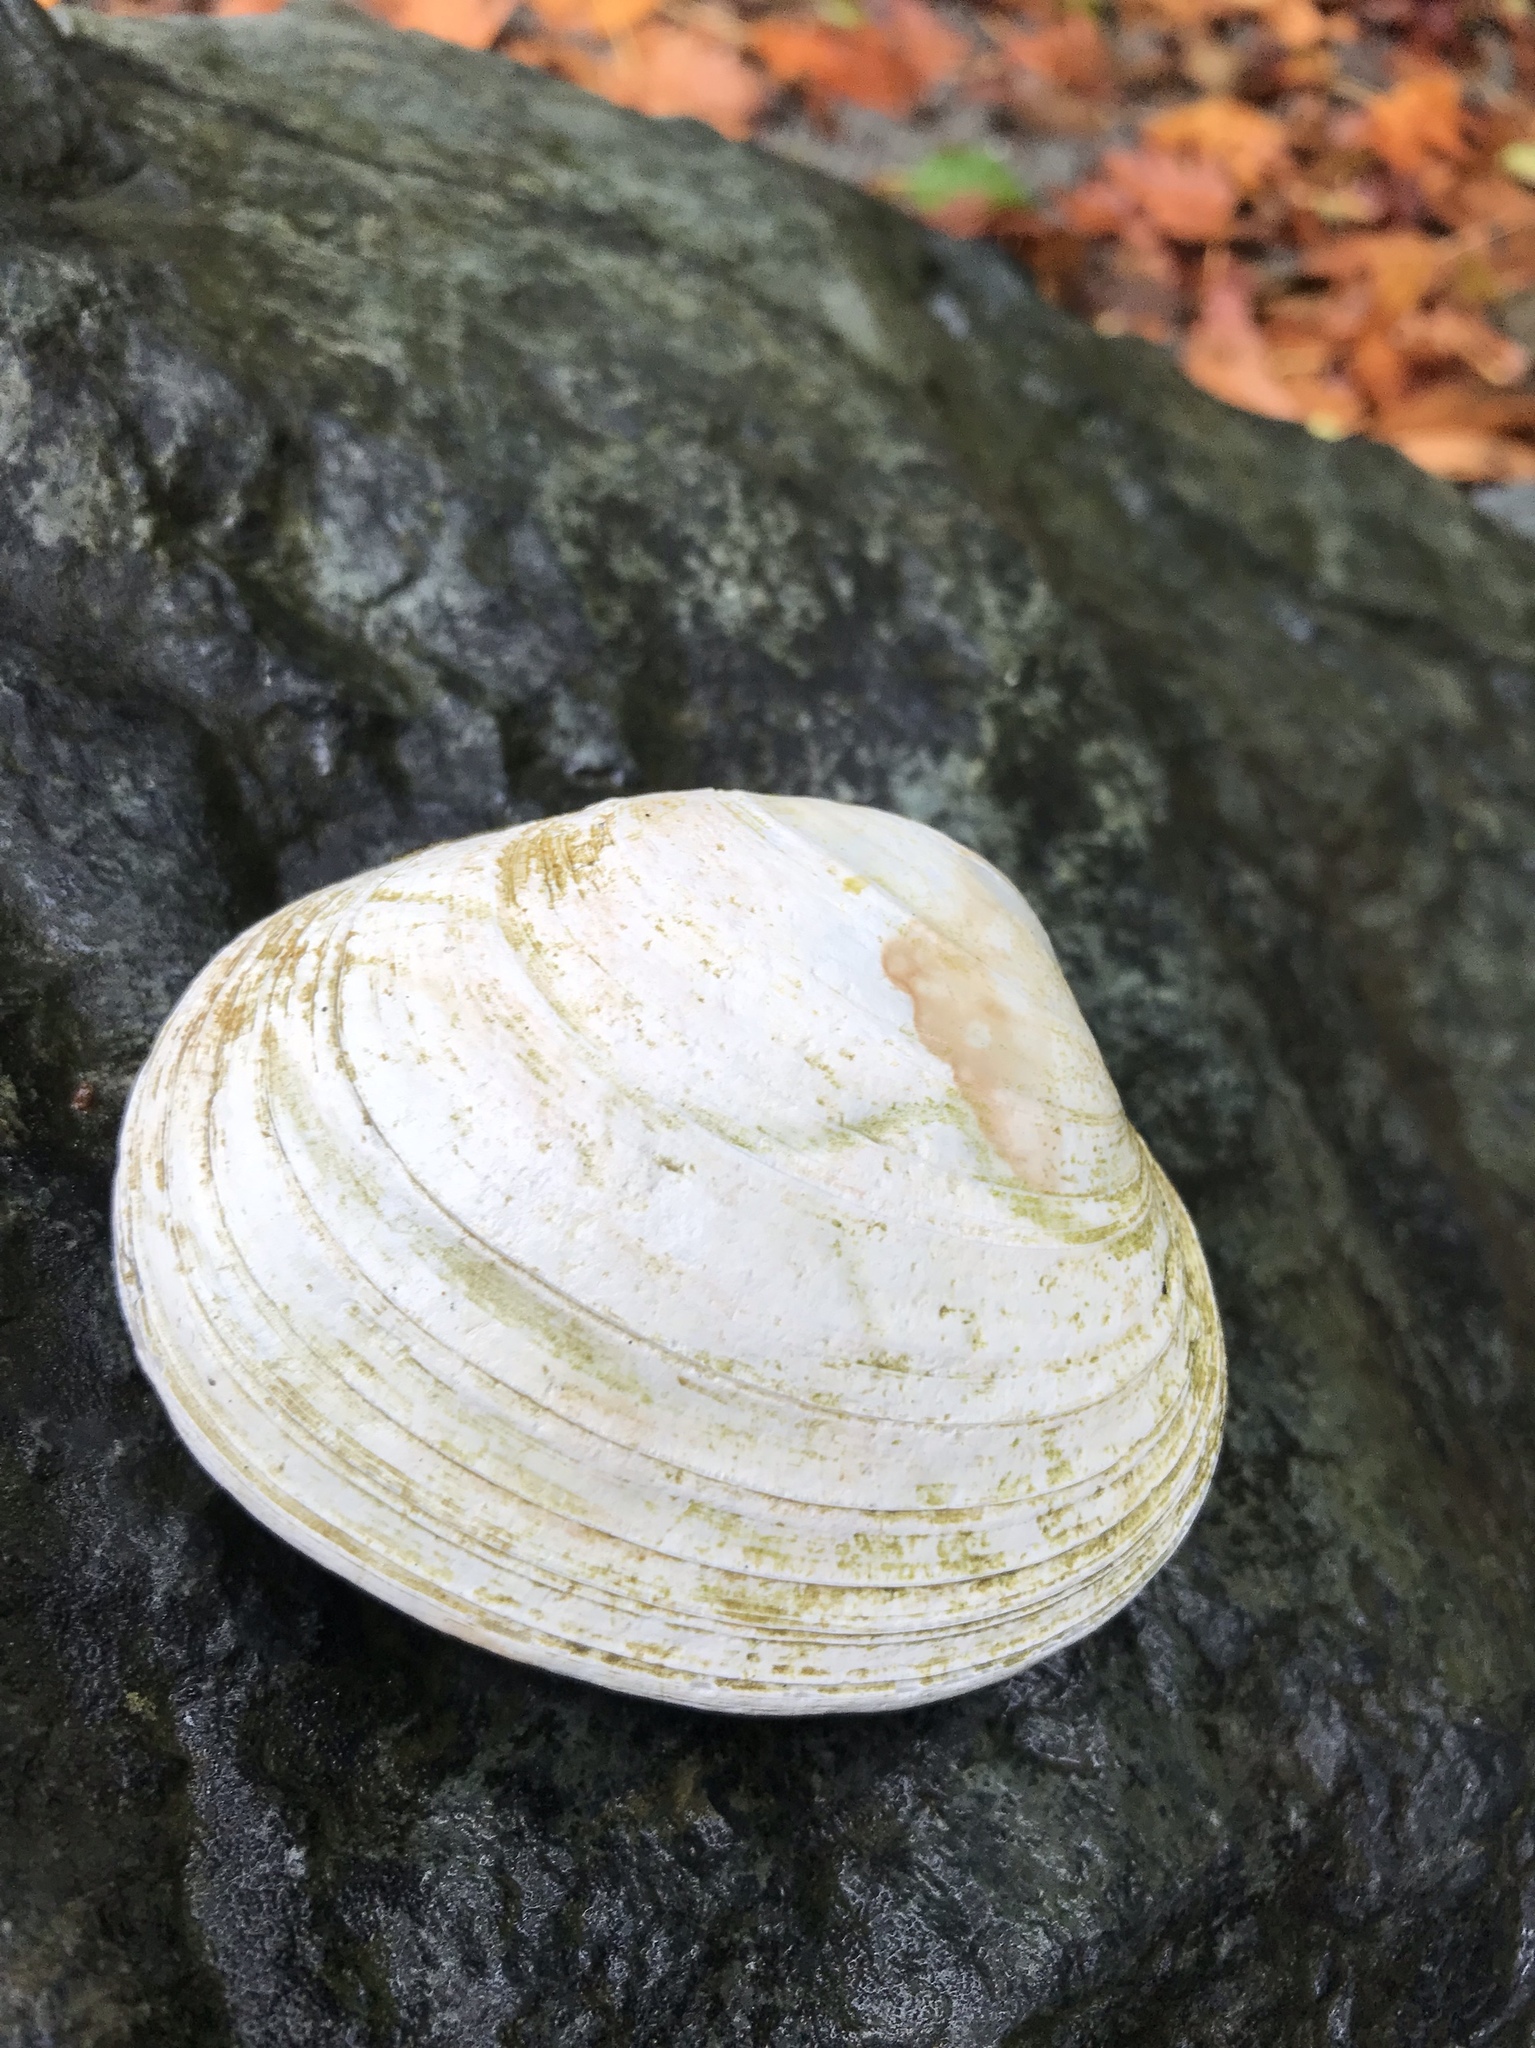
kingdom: Animalia
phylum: Mollusca
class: Bivalvia
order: Venerida
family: Veneridae
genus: Saxidomus
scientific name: Saxidomus gigantea
